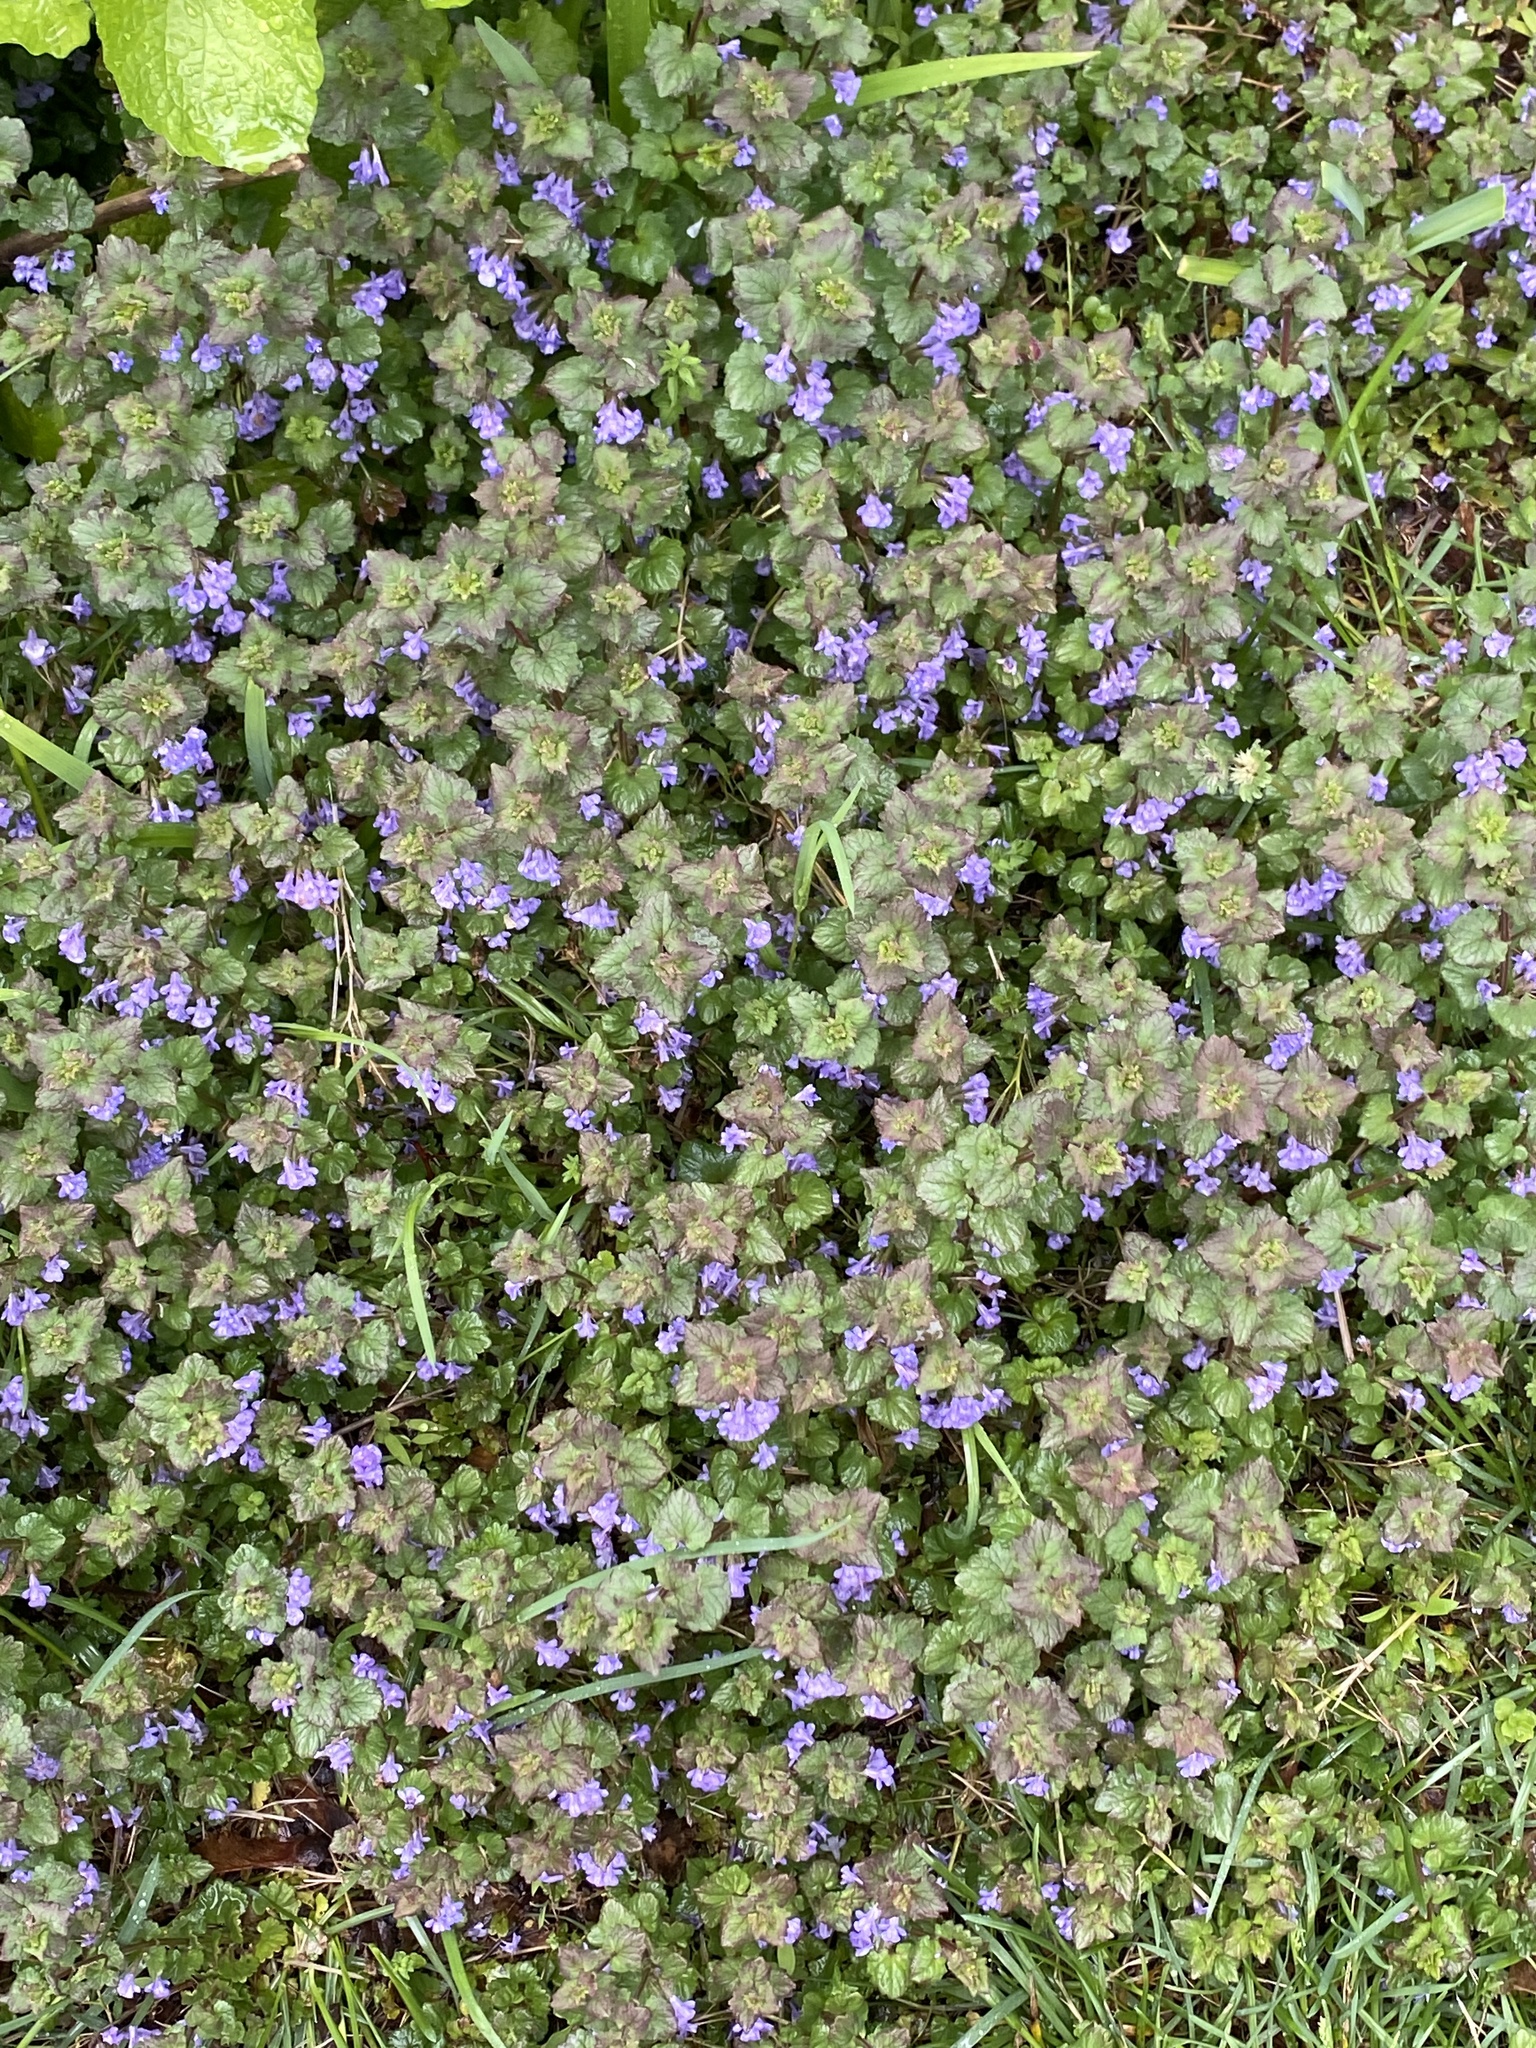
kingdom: Plantae
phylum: Tracheophyta
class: Magnoliopsida
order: Lamiales
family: Lamiaceae
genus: Glechoma
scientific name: Glechoma hederacea
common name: Ground ivy
